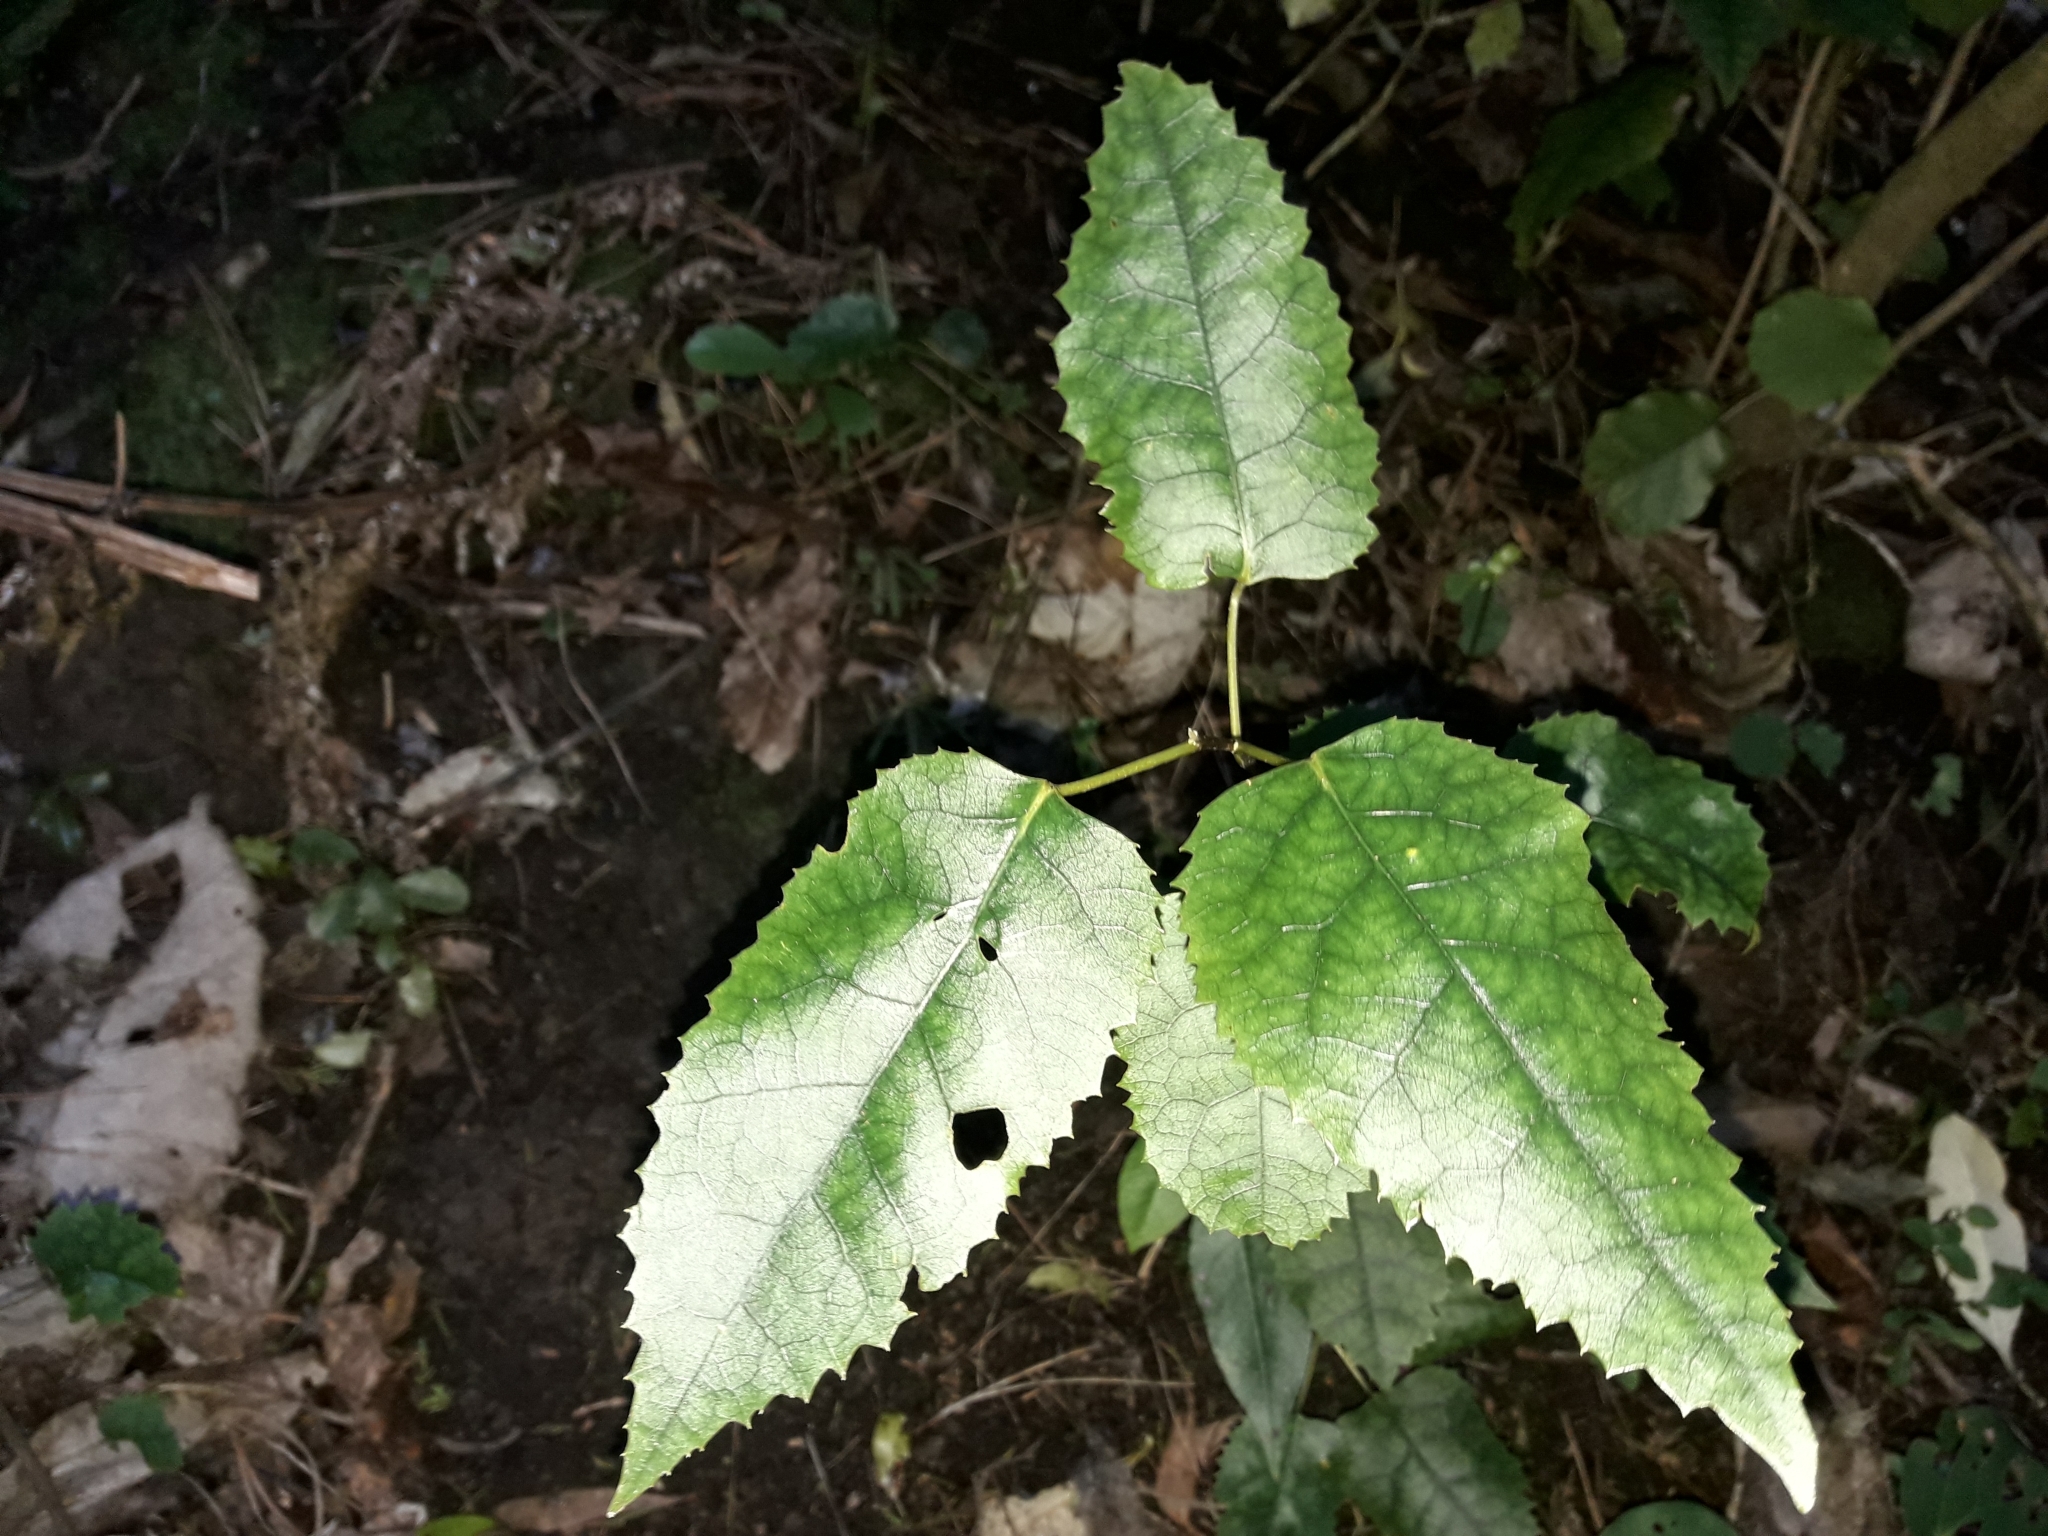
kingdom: Plantae
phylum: Tracheophyta
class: Magnoliopsida
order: Malvales
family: Malvaceae
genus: Hoheria
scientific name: Hoheria populnea
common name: Lacebark
